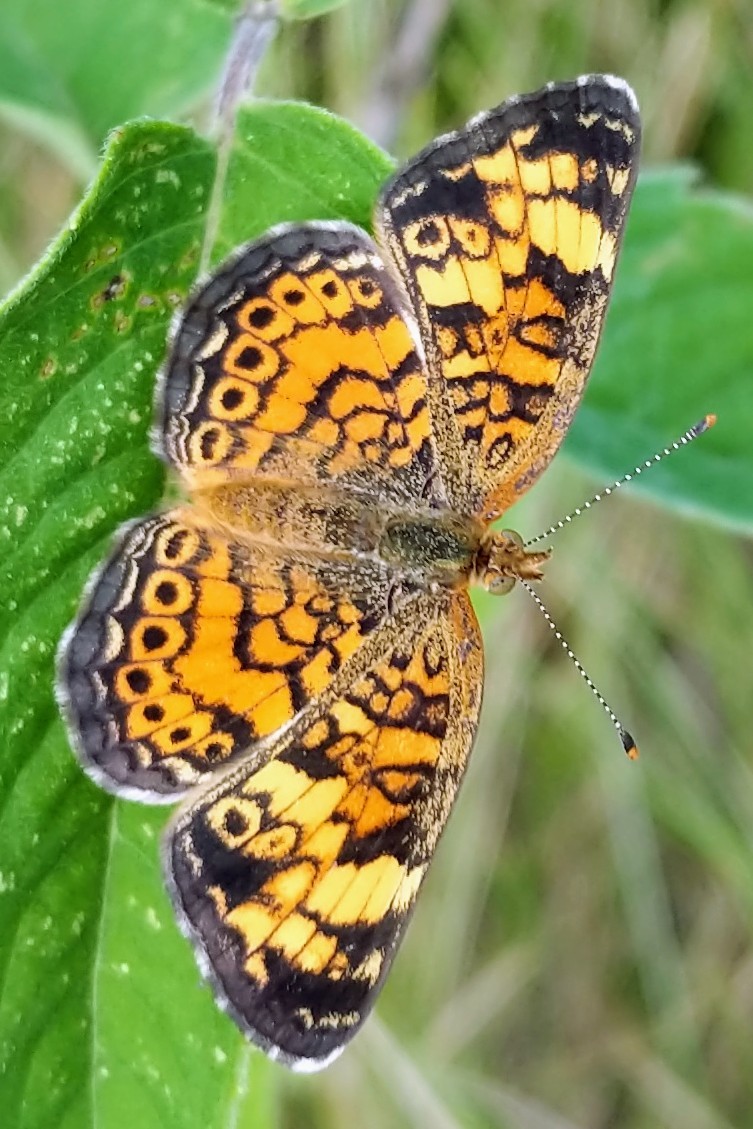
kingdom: Animalia
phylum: Arthropoda
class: Insecta
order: Lepidoptera
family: Nymphalidae
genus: Phyciodes
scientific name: Phyciodes tharos
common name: Pearl crescent
